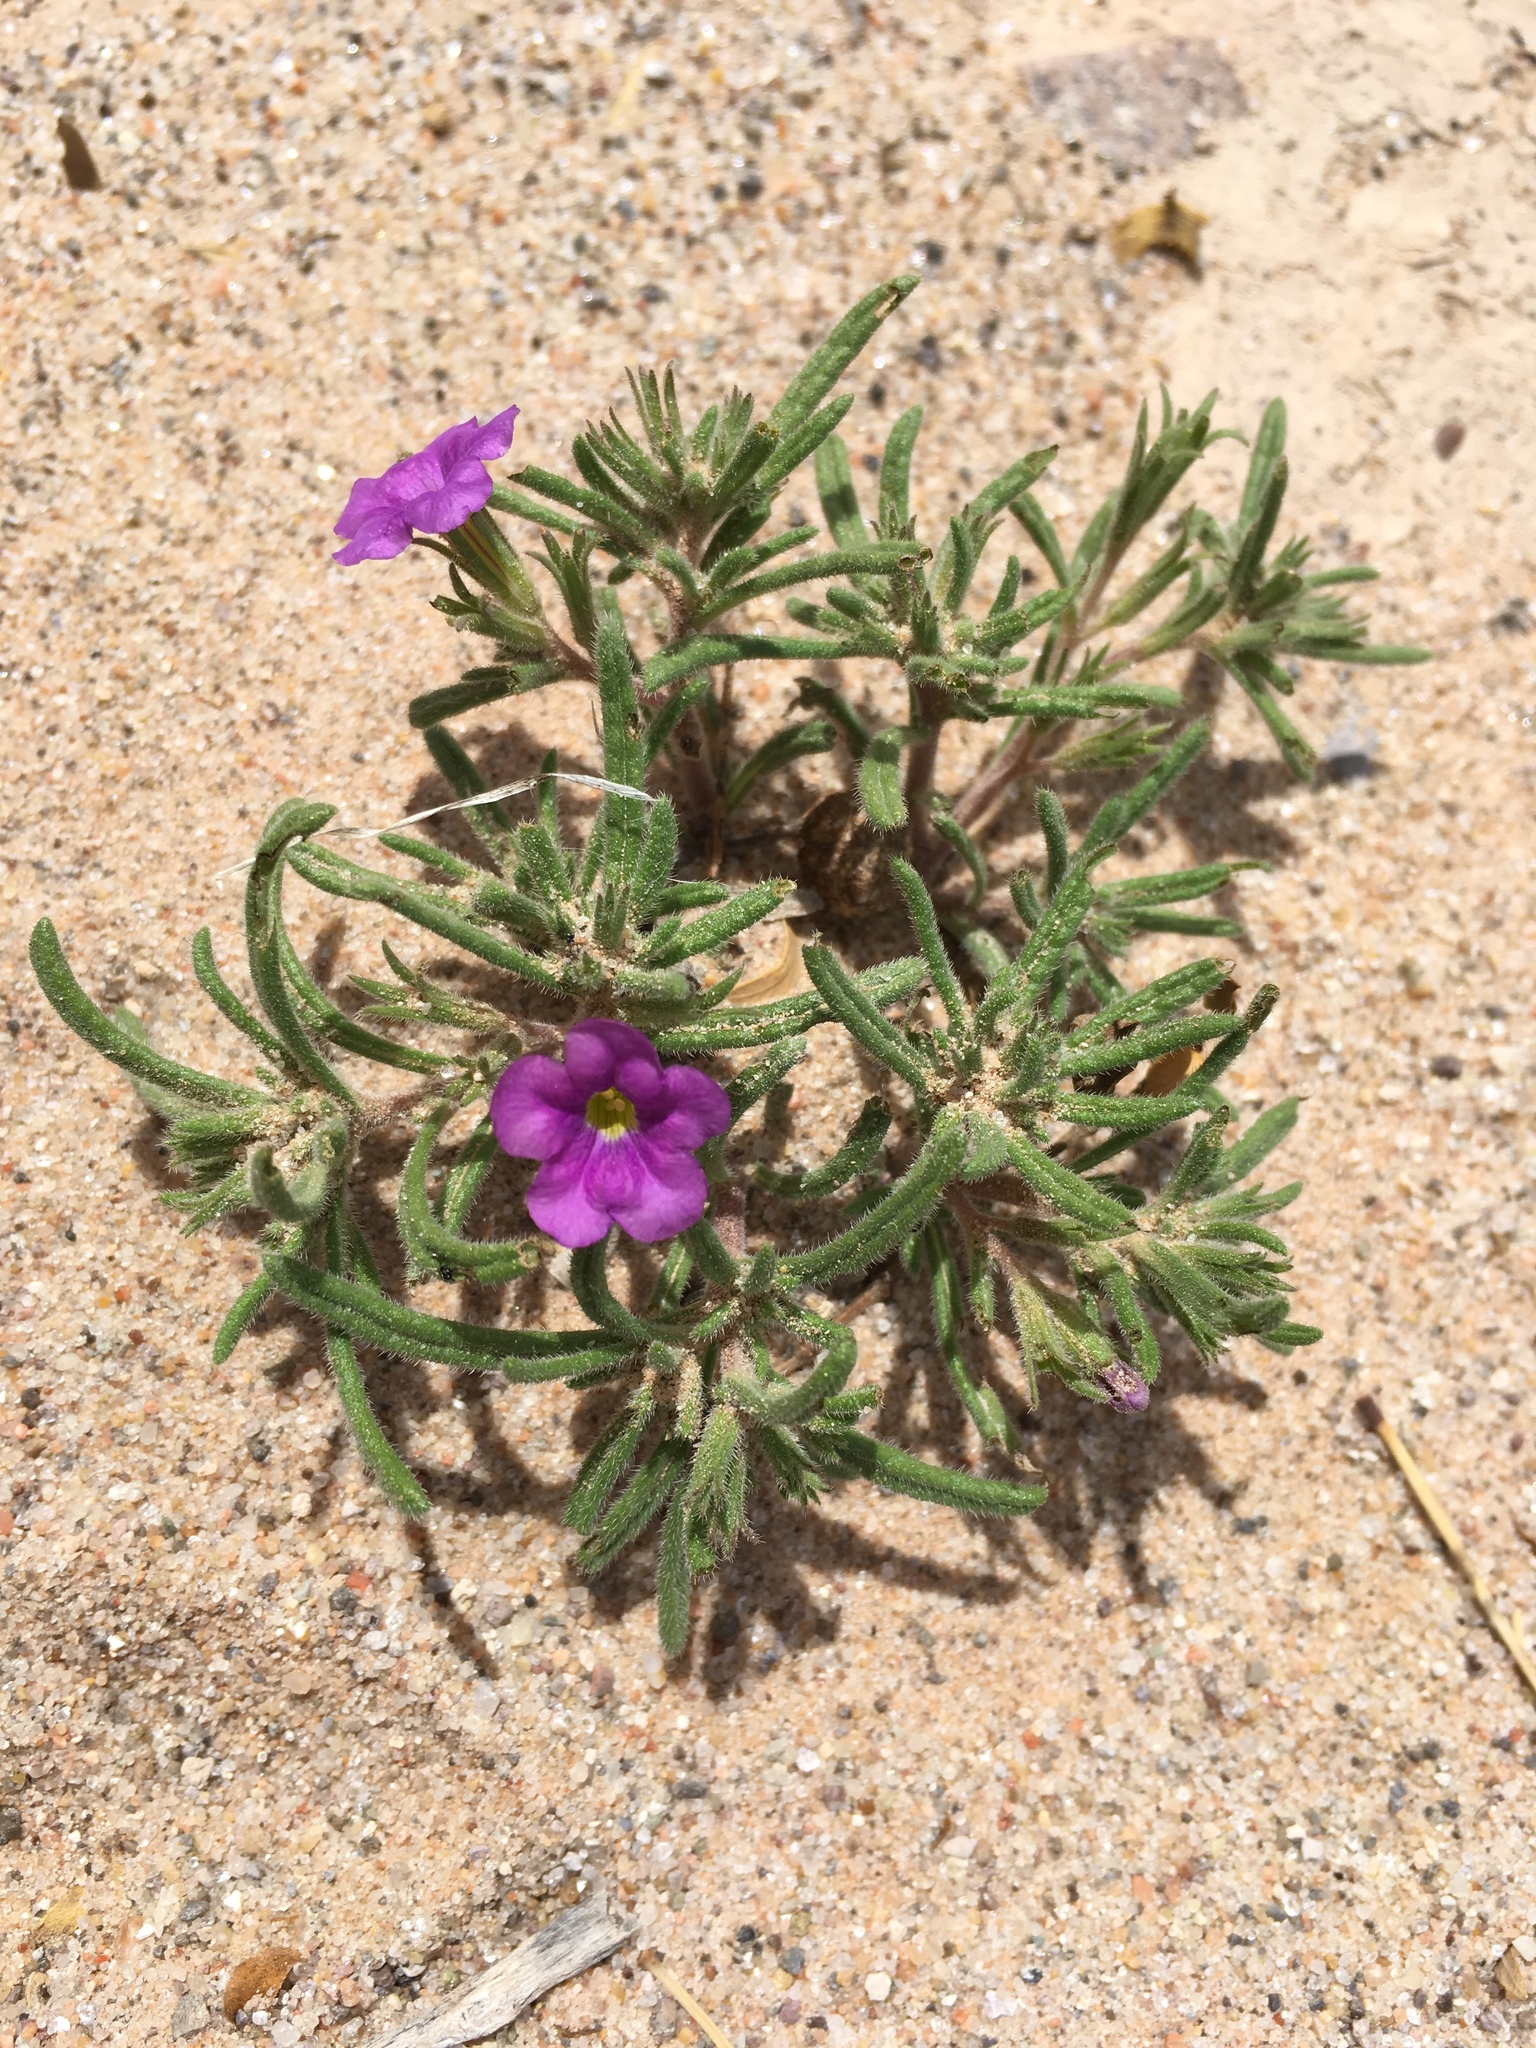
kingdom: Plantae
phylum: Tracheophyta
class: Magnoliopsida
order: Boraginales
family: Namaceae
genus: Nama
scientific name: Nama hispida
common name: Bristly nama
